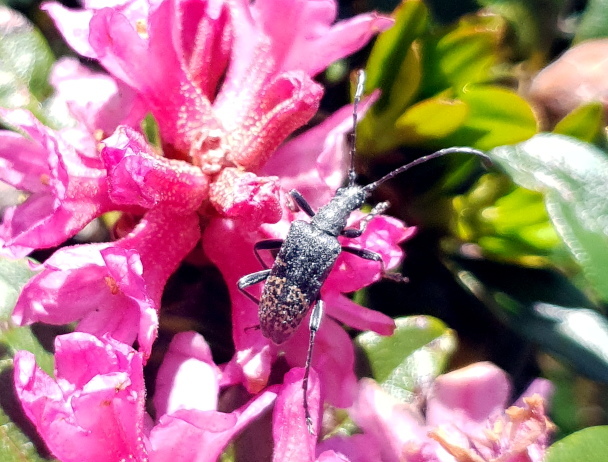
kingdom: Animalia
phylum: Arthropoda
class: Insecta
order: Coleoptera
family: Cerambycidae
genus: Evodinus
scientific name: Evodinus clathratus
